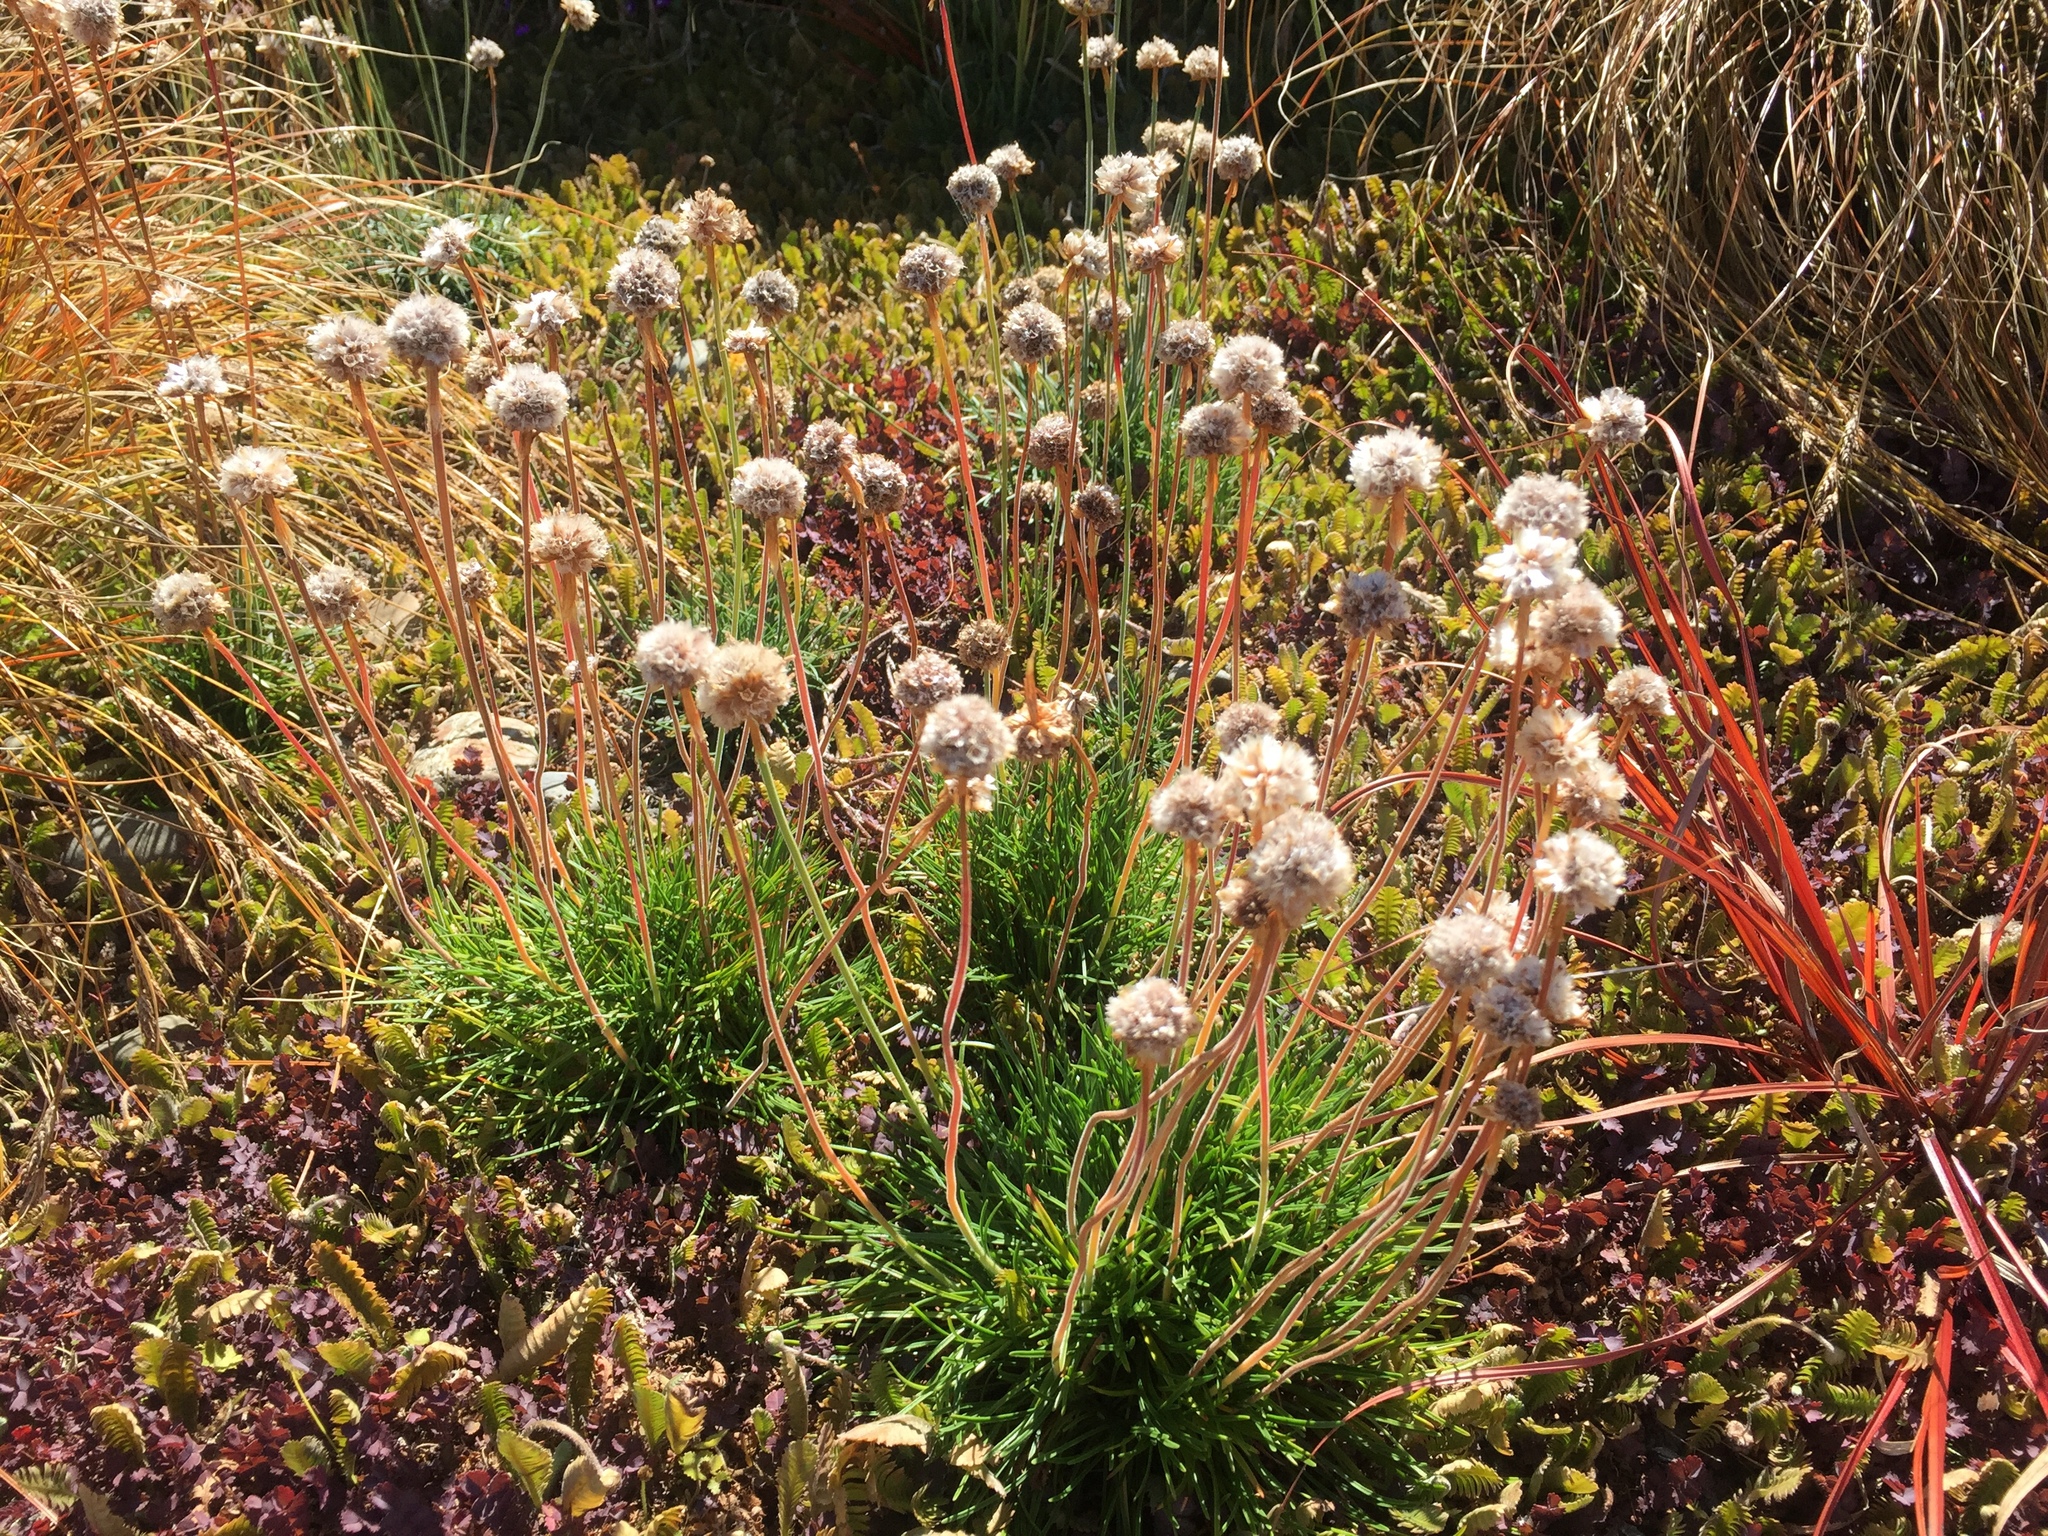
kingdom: Plantae
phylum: Tracheophyta
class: Magnoliopsida
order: Caryophyllales
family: Plumbaginaceae
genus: Armeria
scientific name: Armeria maritima
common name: Thrift
